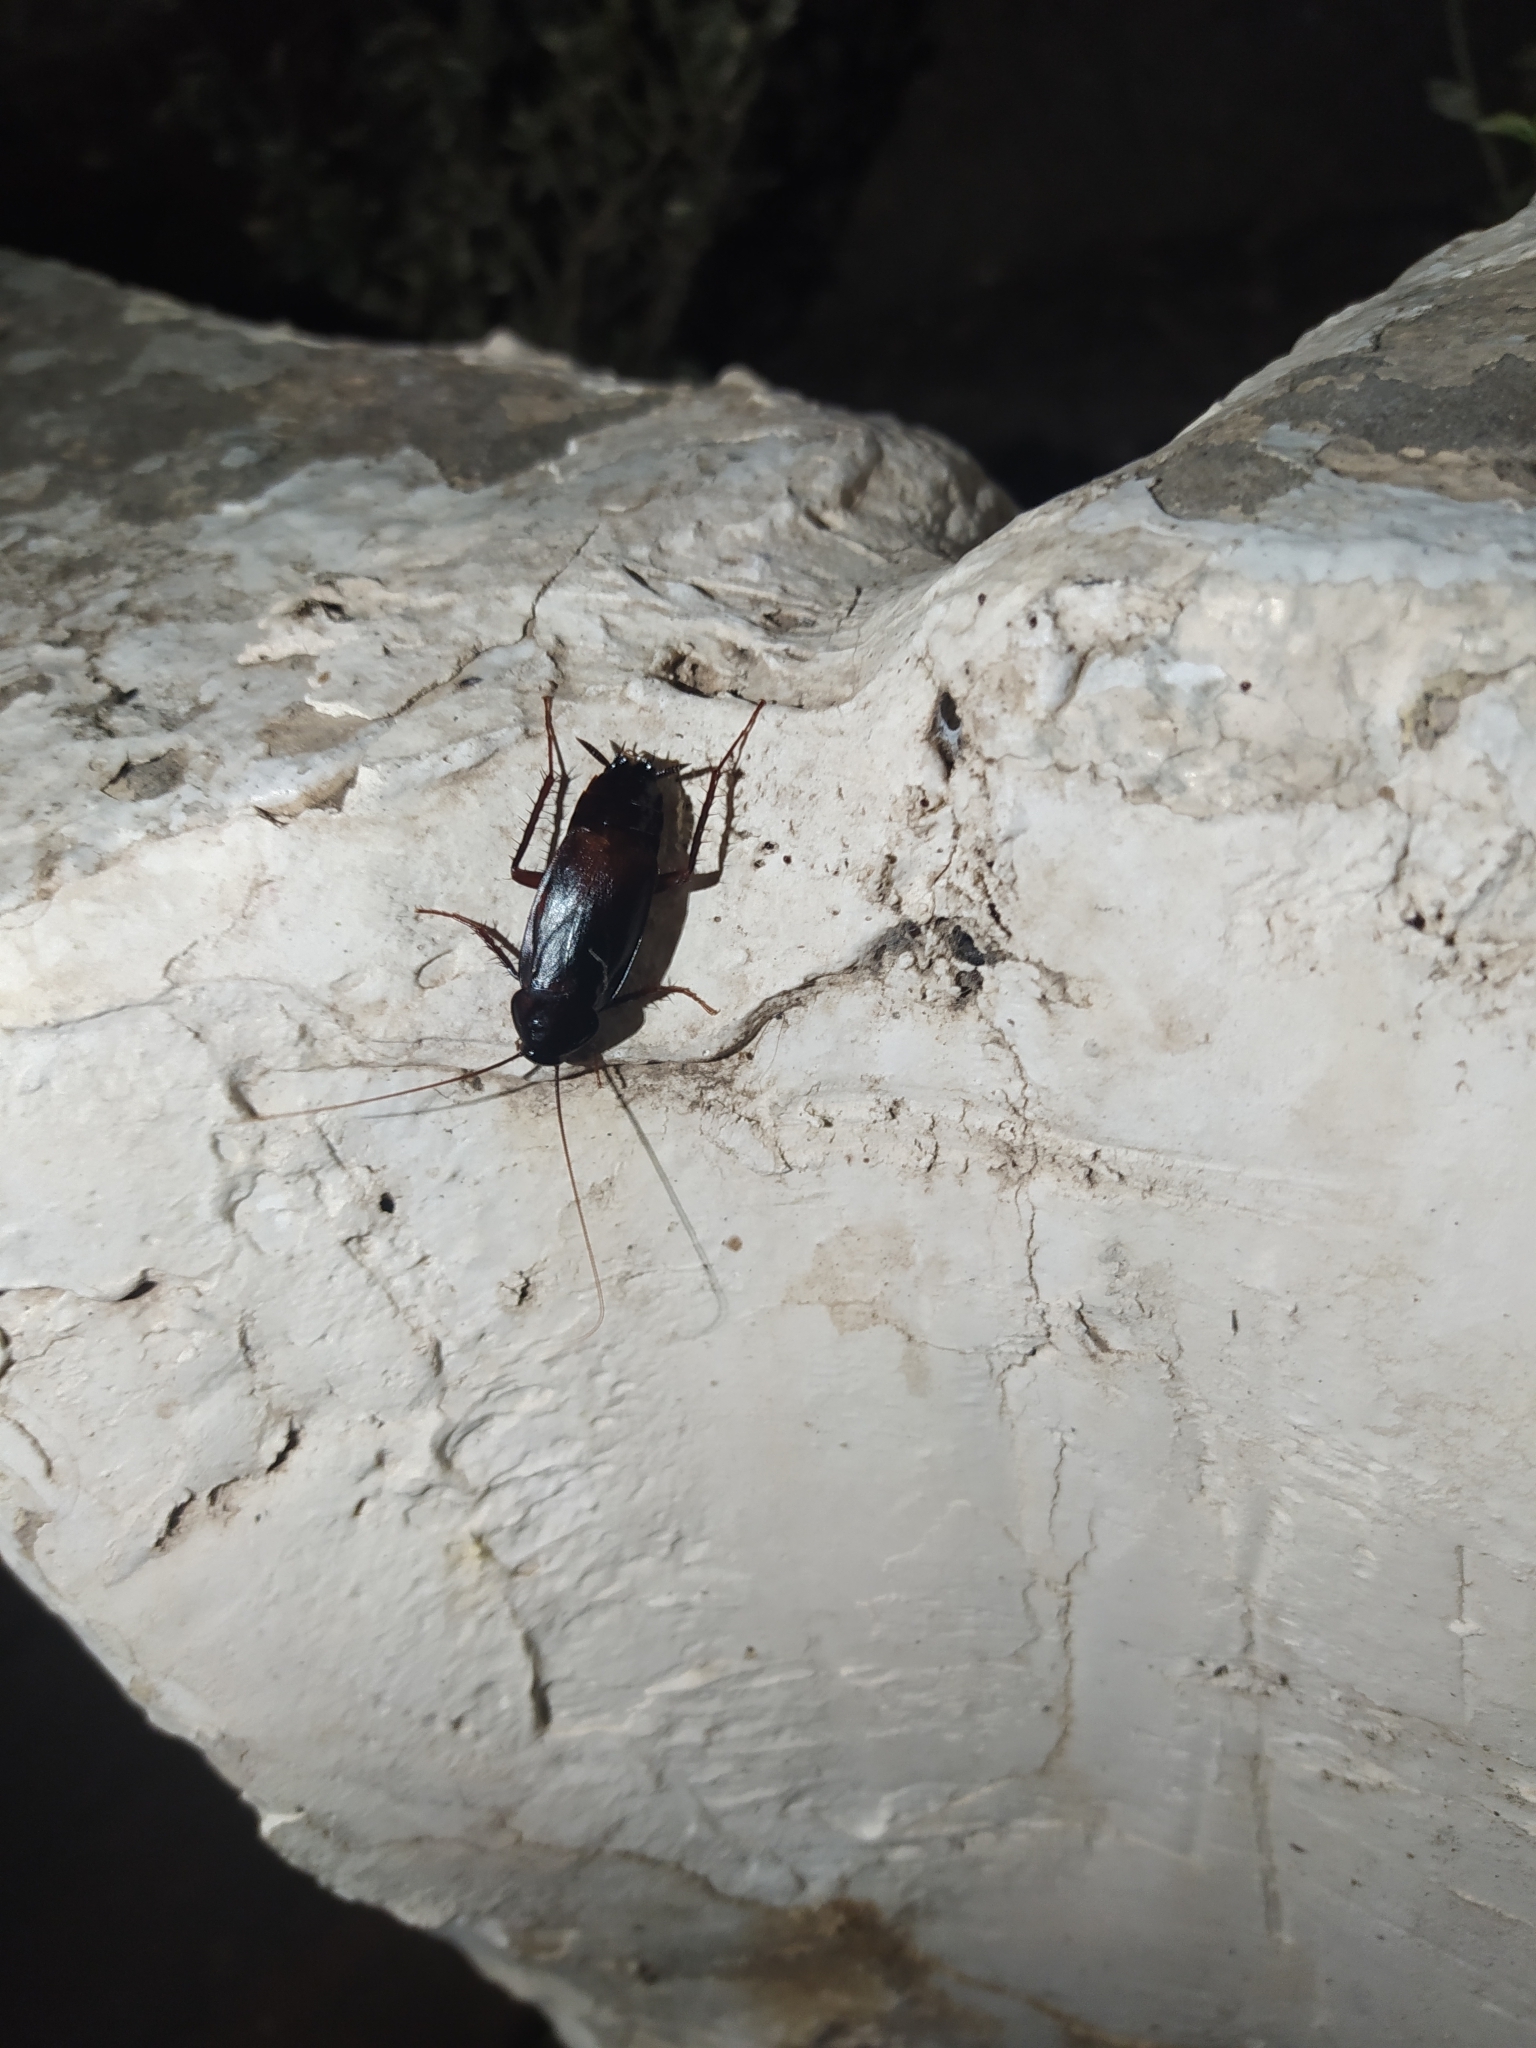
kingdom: Animalia
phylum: Arthropoda
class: Insecta
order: Blattodea
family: Blattidae
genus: Blatta
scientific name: Blatta orientalis
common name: Oriental cockroach
